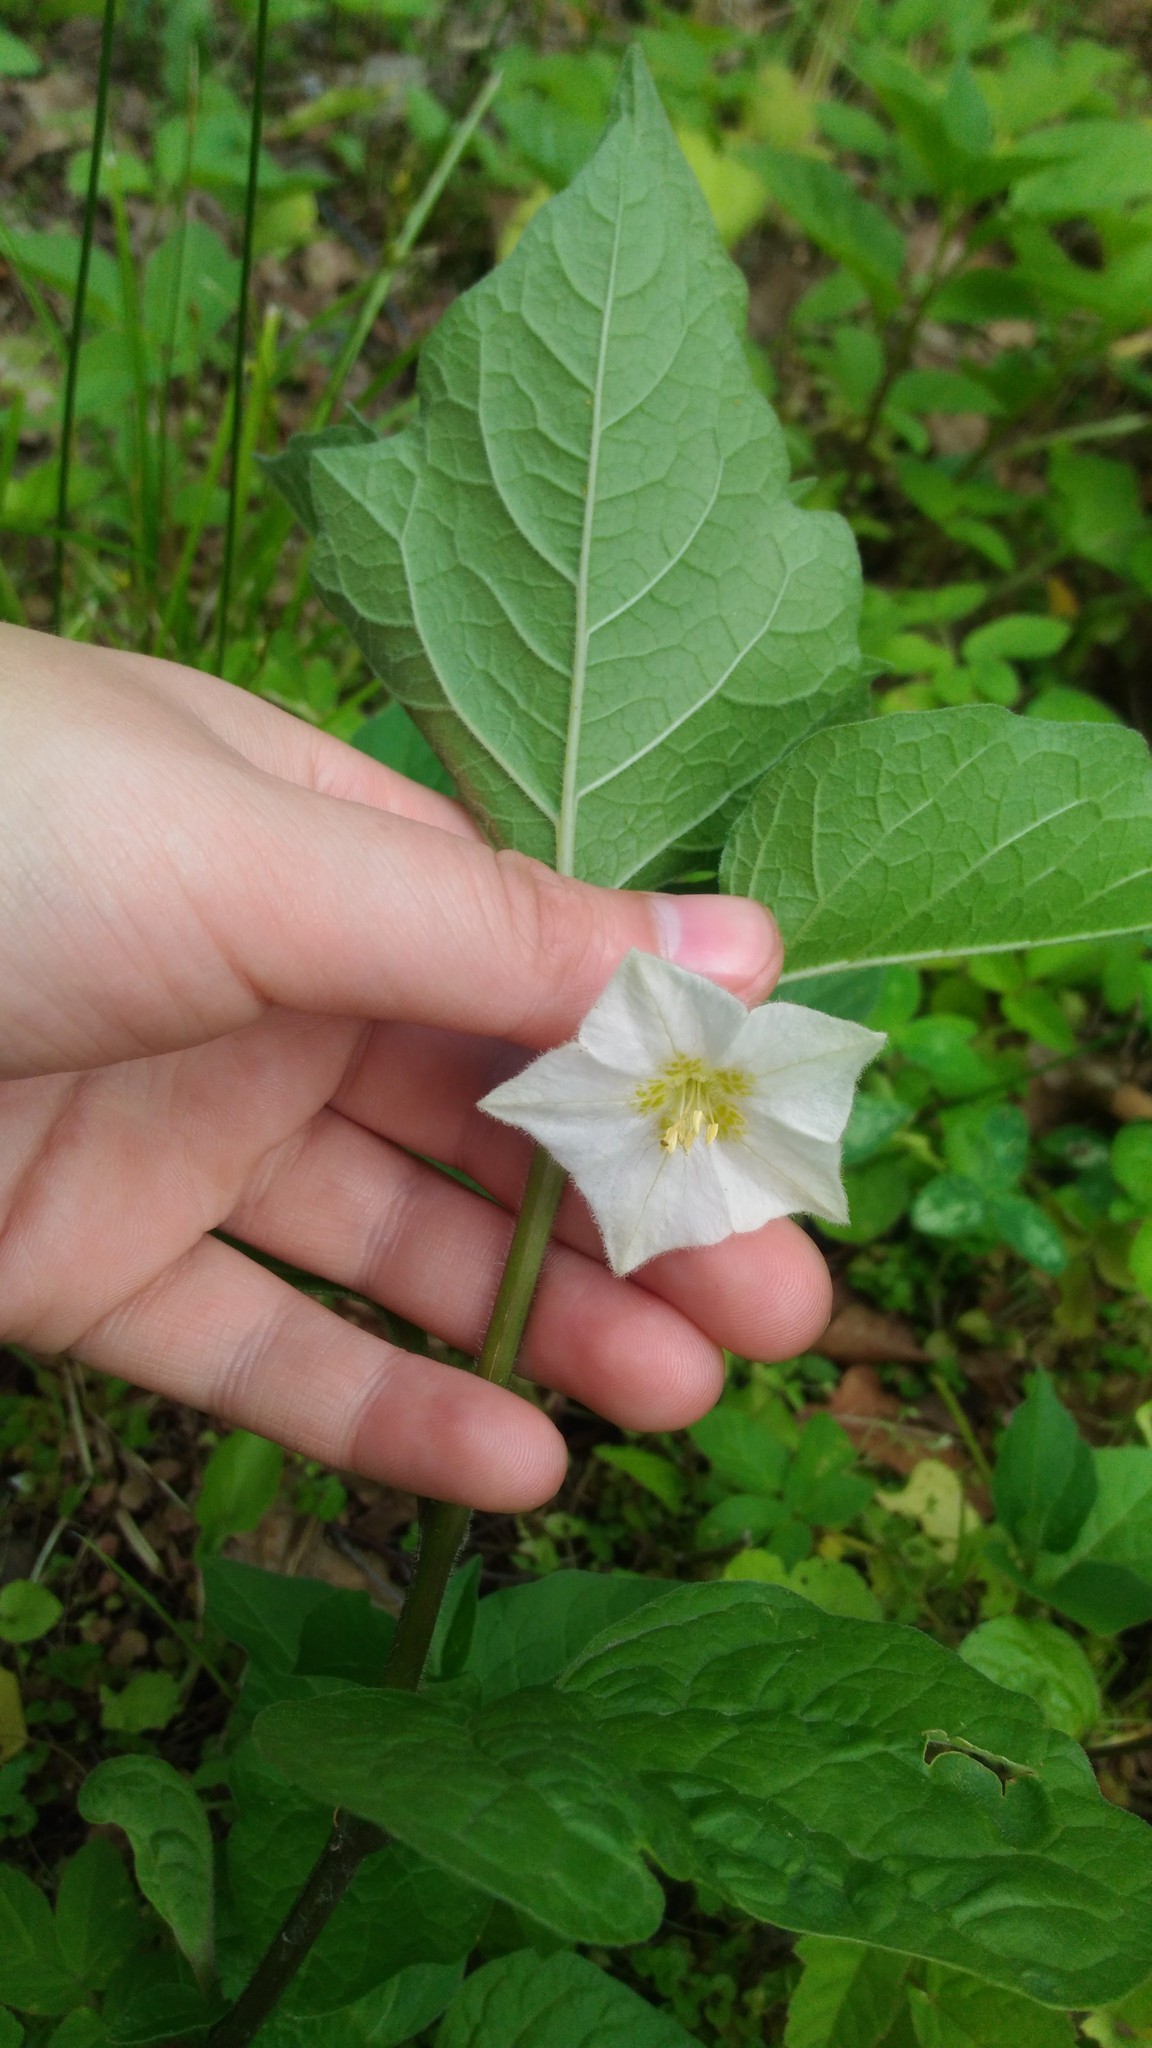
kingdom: Plantae
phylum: Tracheophyta
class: Magnoliopsida
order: Solanales
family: Solanaceae
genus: Alkekengi
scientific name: Alkekengi officinarum
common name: Japanese-lantern
